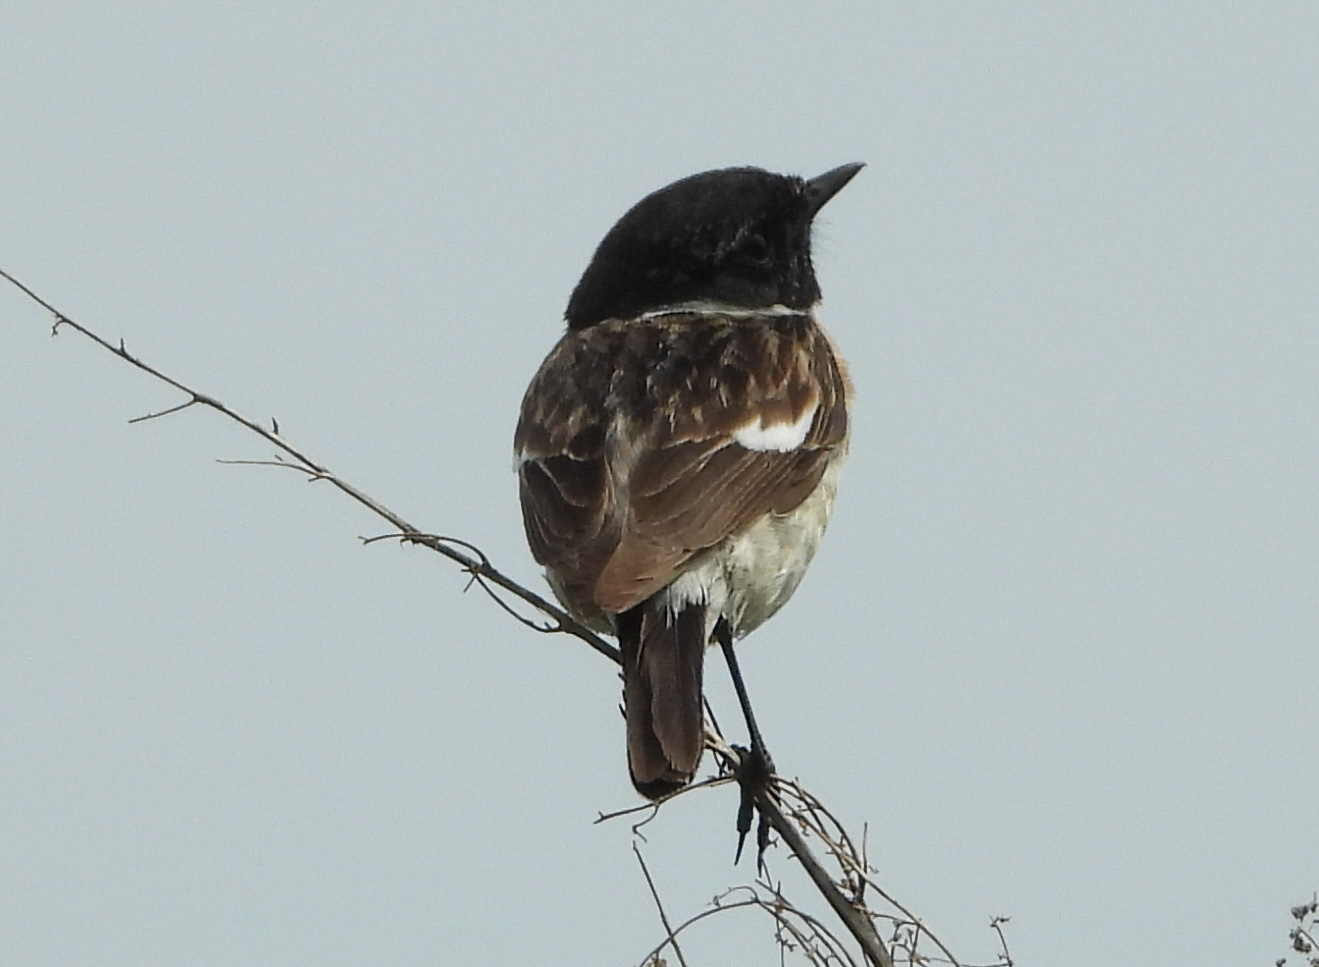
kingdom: Animalia
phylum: Chordata
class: Aves
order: Passeriformes
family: Muscicapidae
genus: Saxicola
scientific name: Saxicola maurus
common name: Siberian stonechat
